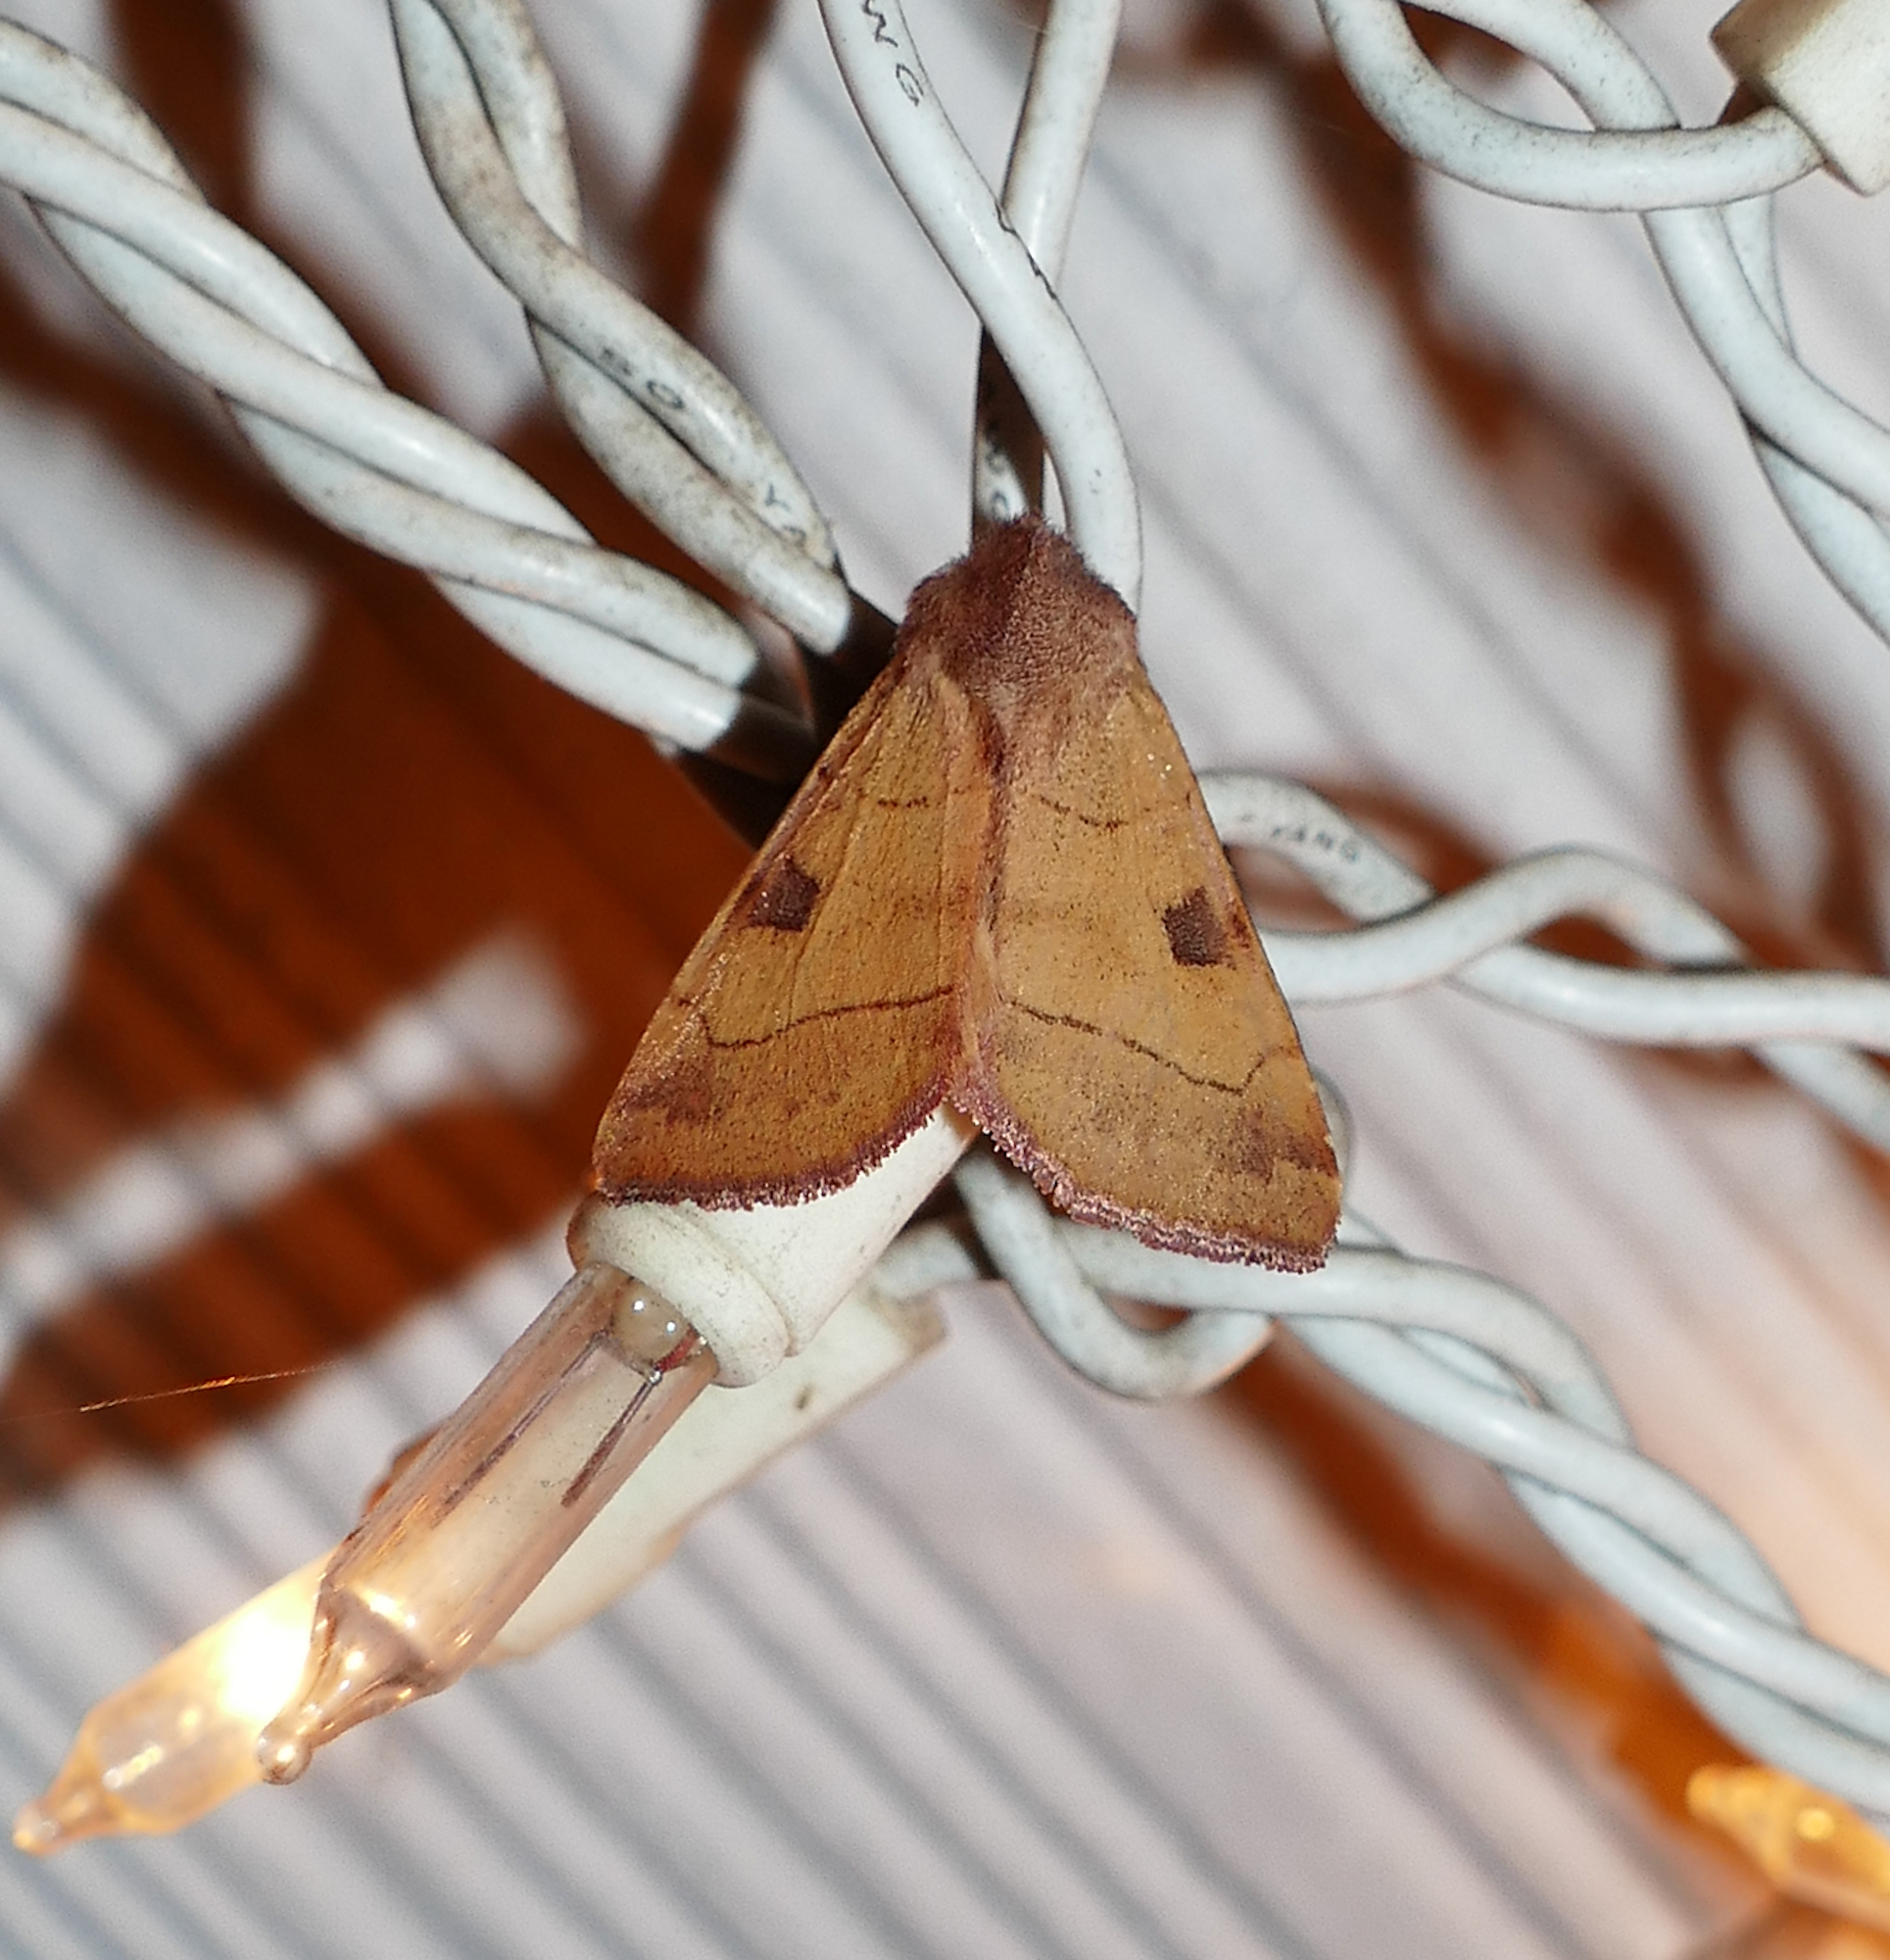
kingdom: Animalia
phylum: Arthropoda
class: Insecta
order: Lepidoptera
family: Noctuidae
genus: Choephora
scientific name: Choephora fungorum
